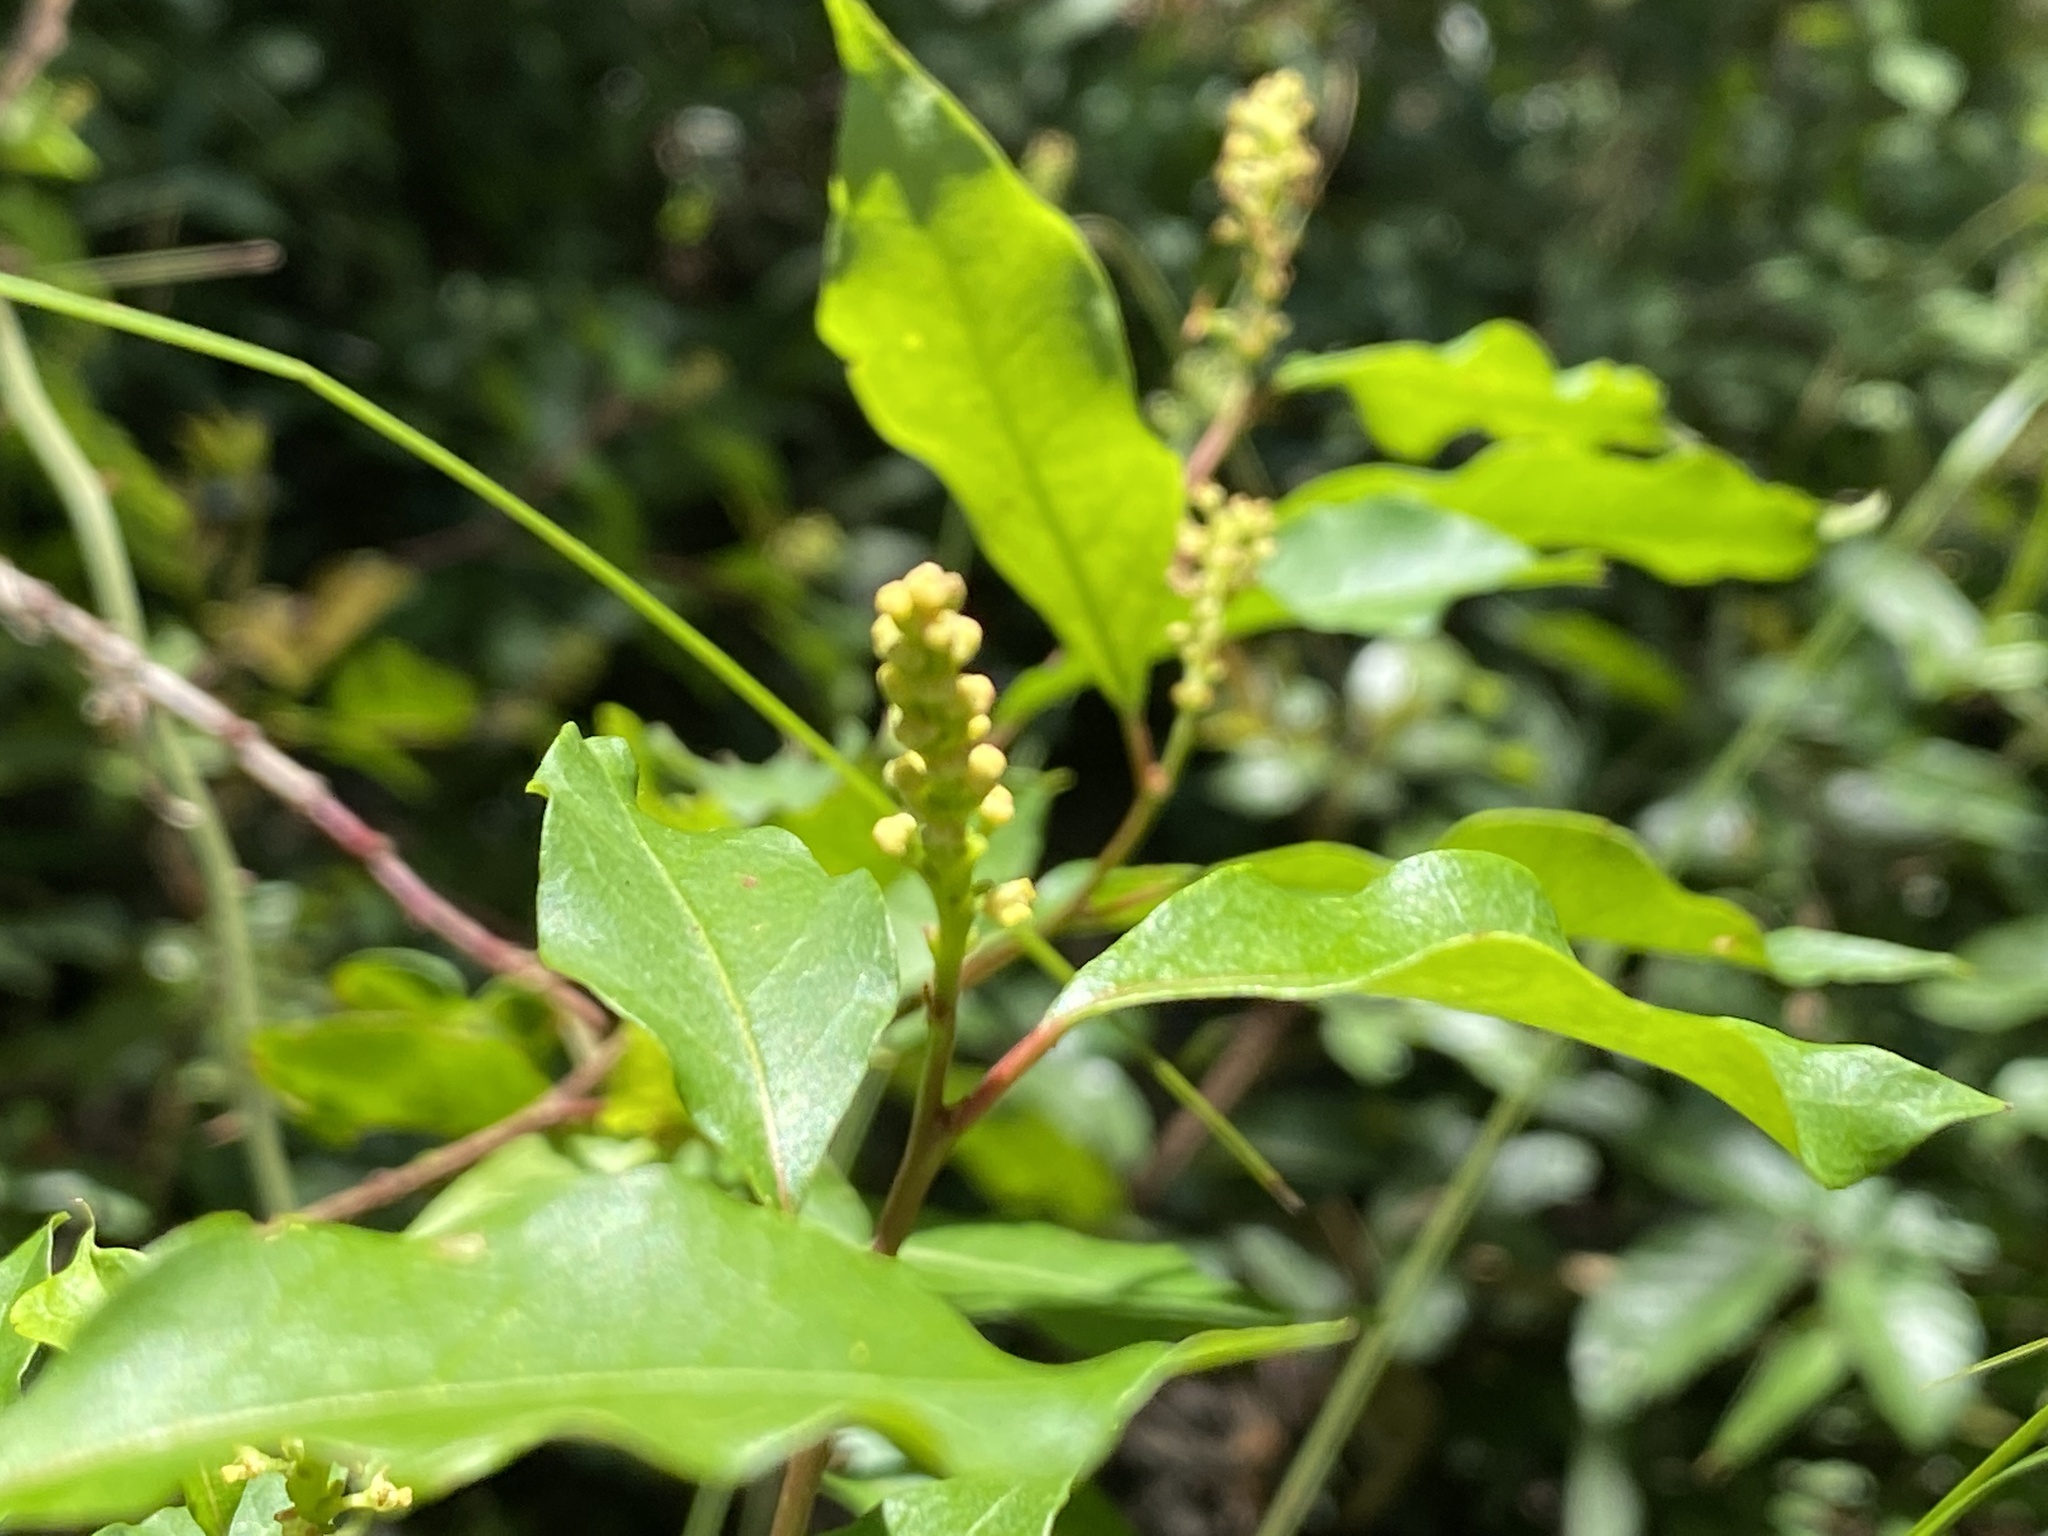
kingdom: Plantae
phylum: Tracheophyta
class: Magnoliopsida
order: Malpighiales
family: Euphorbiaceae
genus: Ditrysinia
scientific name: Ditrysinia fruticosa
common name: Gulf sebastian-bush
